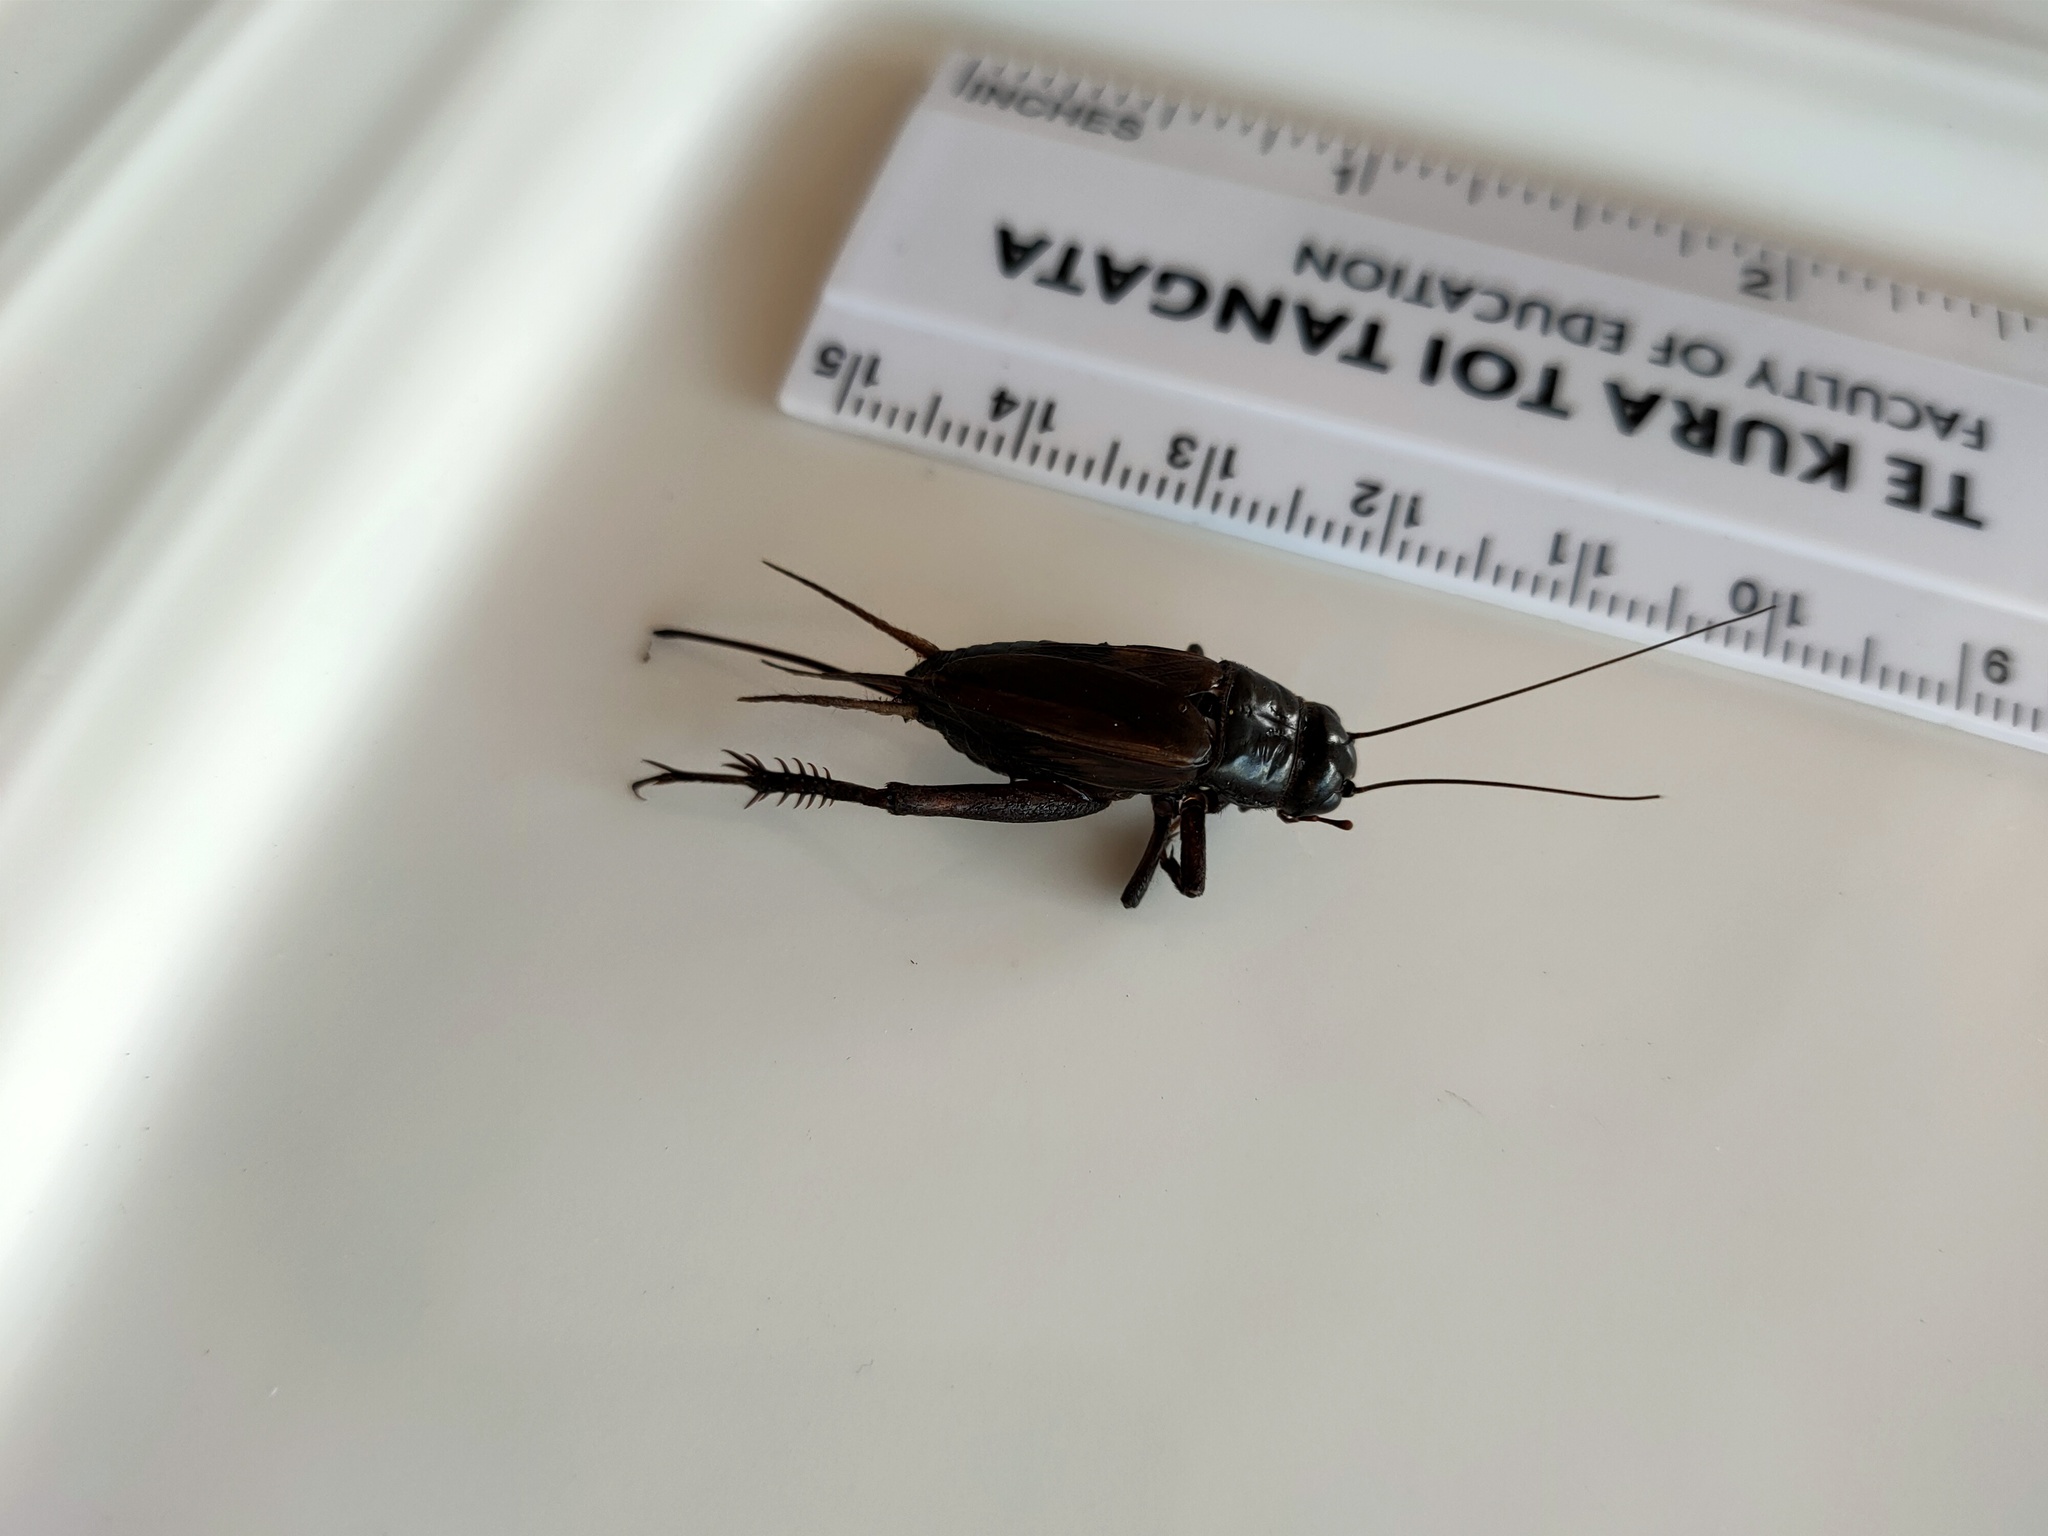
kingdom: Animalia
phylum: Arthropoda
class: Insecta
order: Orthoptera
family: Gryllidae
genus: Teleogryllus
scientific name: Teleogryllus commodus
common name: Black field cricket
